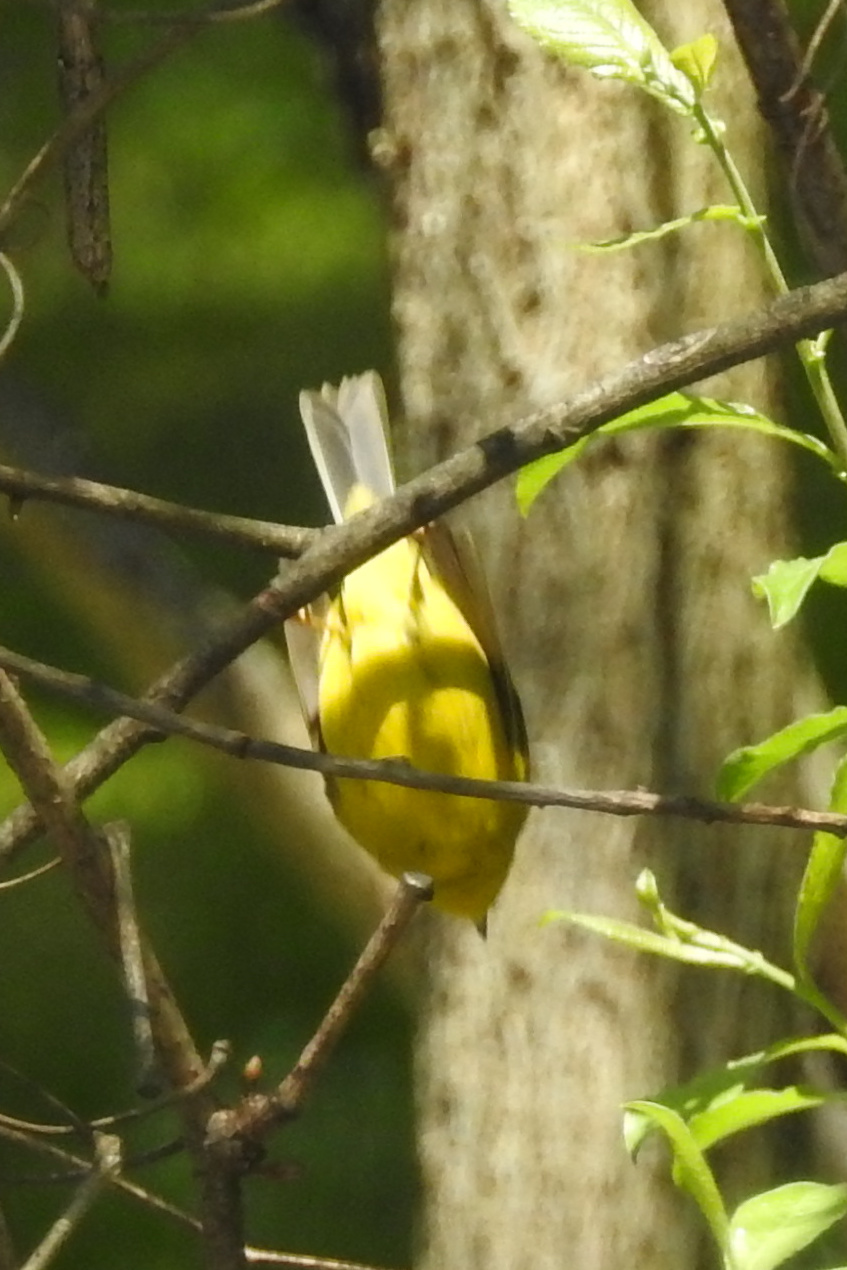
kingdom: Animalia
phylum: Chordata
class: Aves
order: Passeriformes
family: Parulidae
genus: Cardellina
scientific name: Cardellina pusilla
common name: Wilson's warbler
